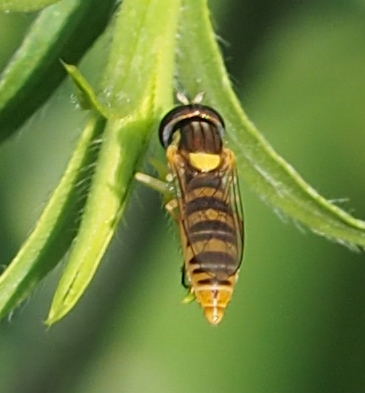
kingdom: Animalia
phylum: Arthropoda
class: Insecta
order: Diptera
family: Syrphidae
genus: Sphaerophoria
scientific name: Sphaerophoria
